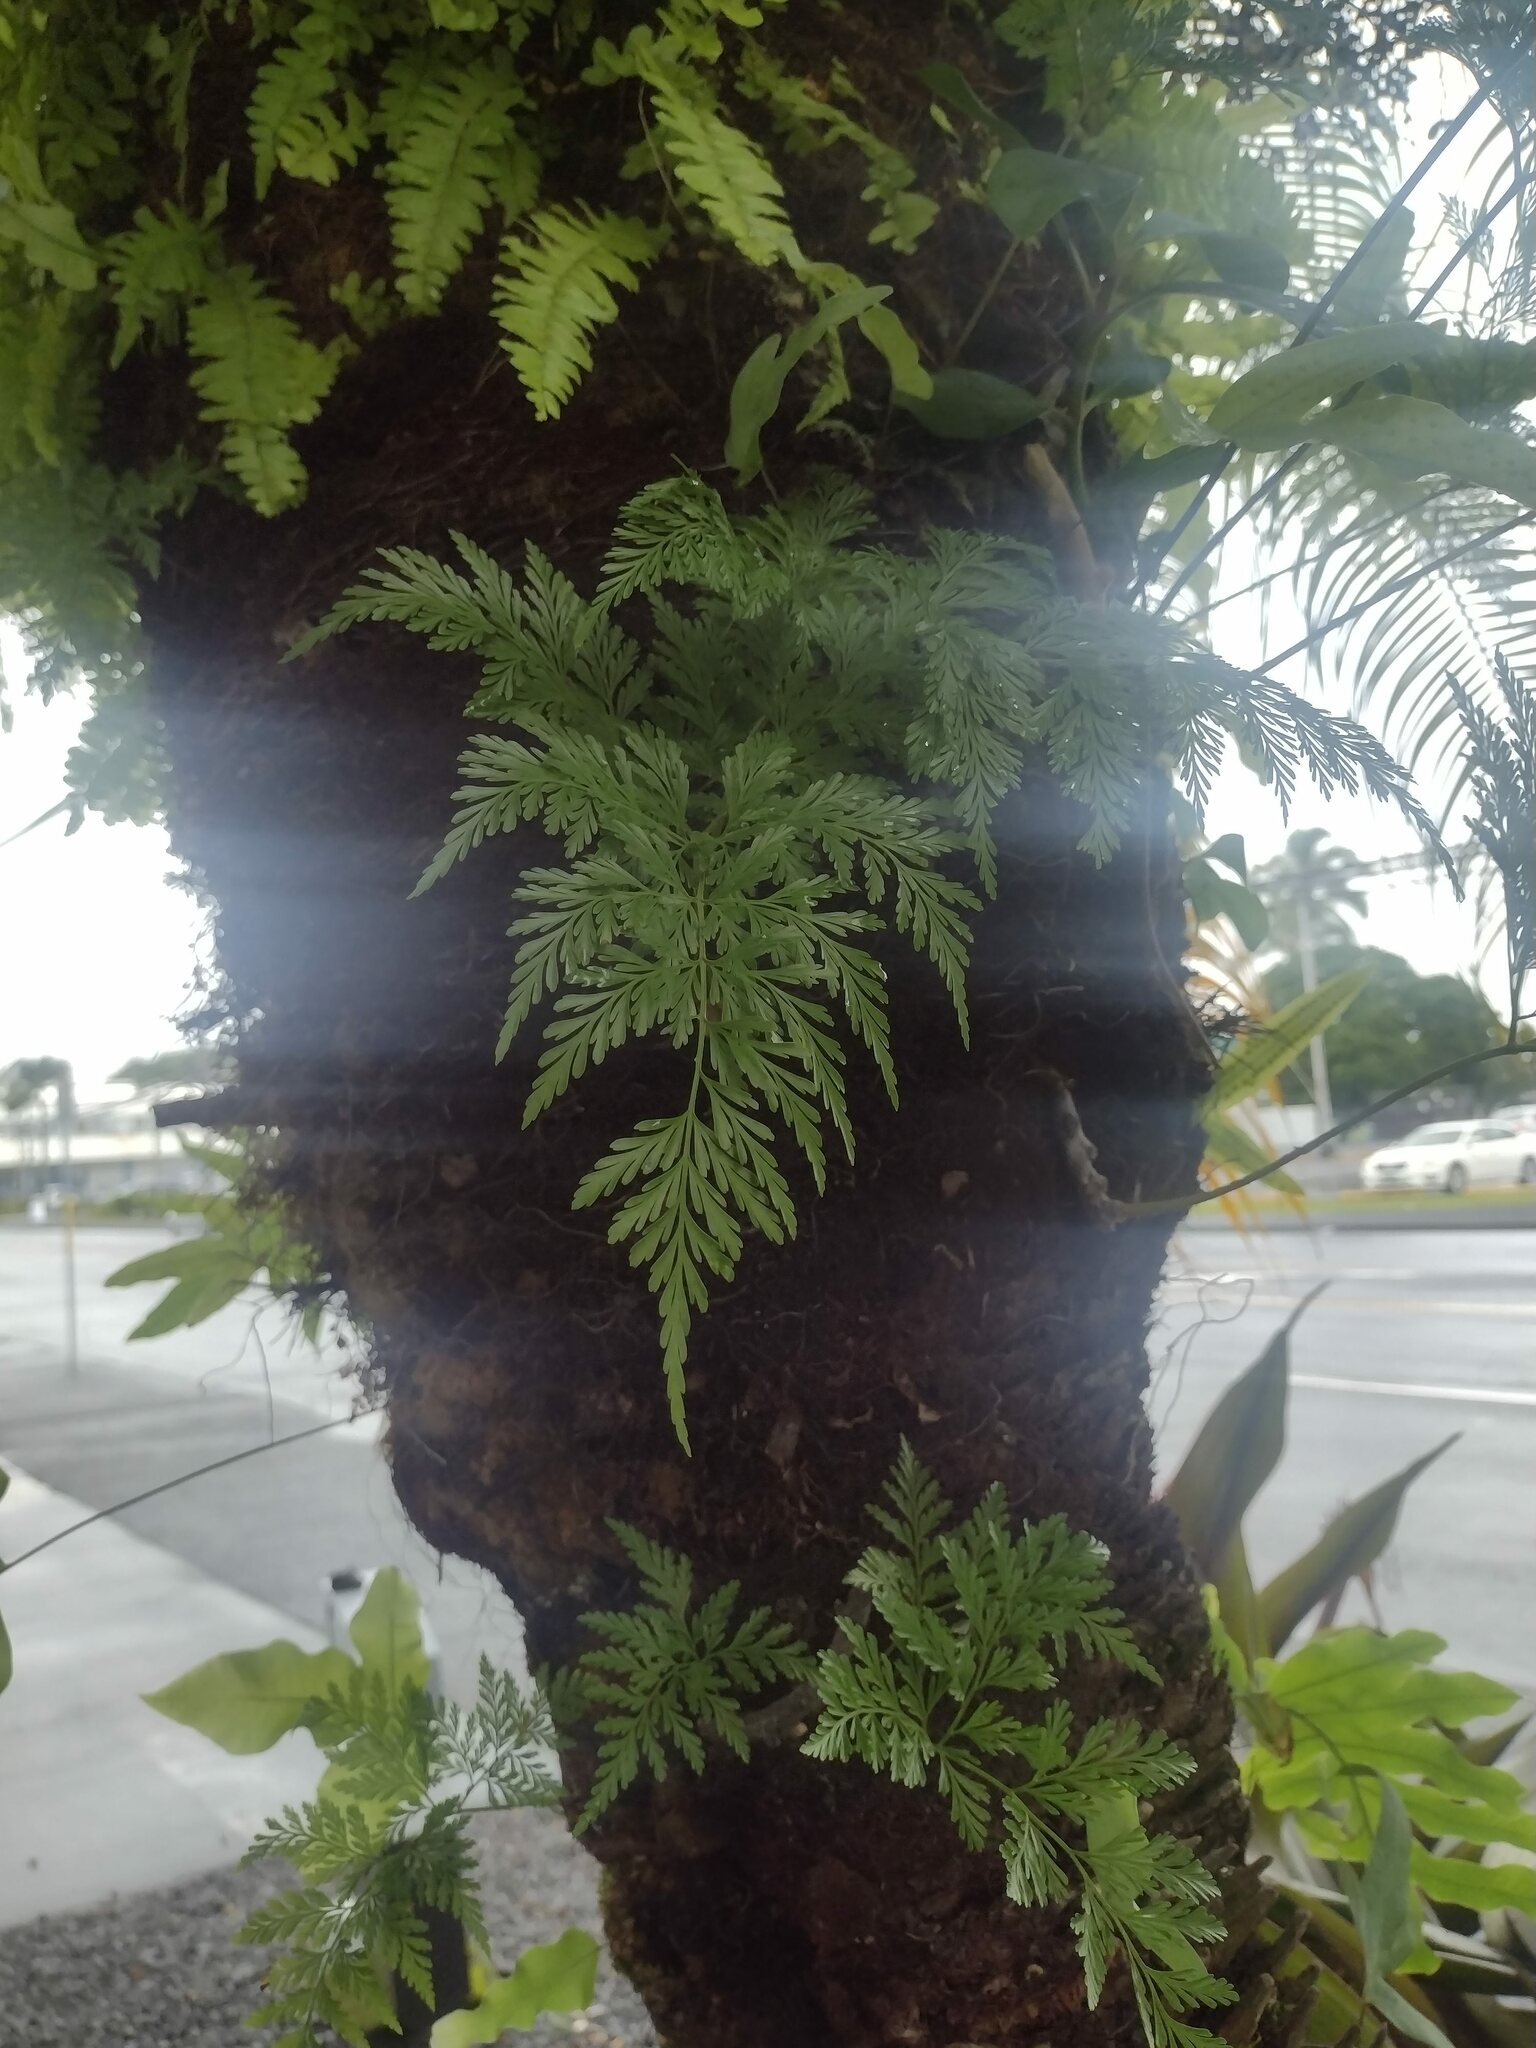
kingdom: Plantae
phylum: Tracheophyta
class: Polypodiopsida
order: Polypodiales
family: Davalliaceae
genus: Davallia
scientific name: Davallia fejeensis
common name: Lacy hare's-foot fern
